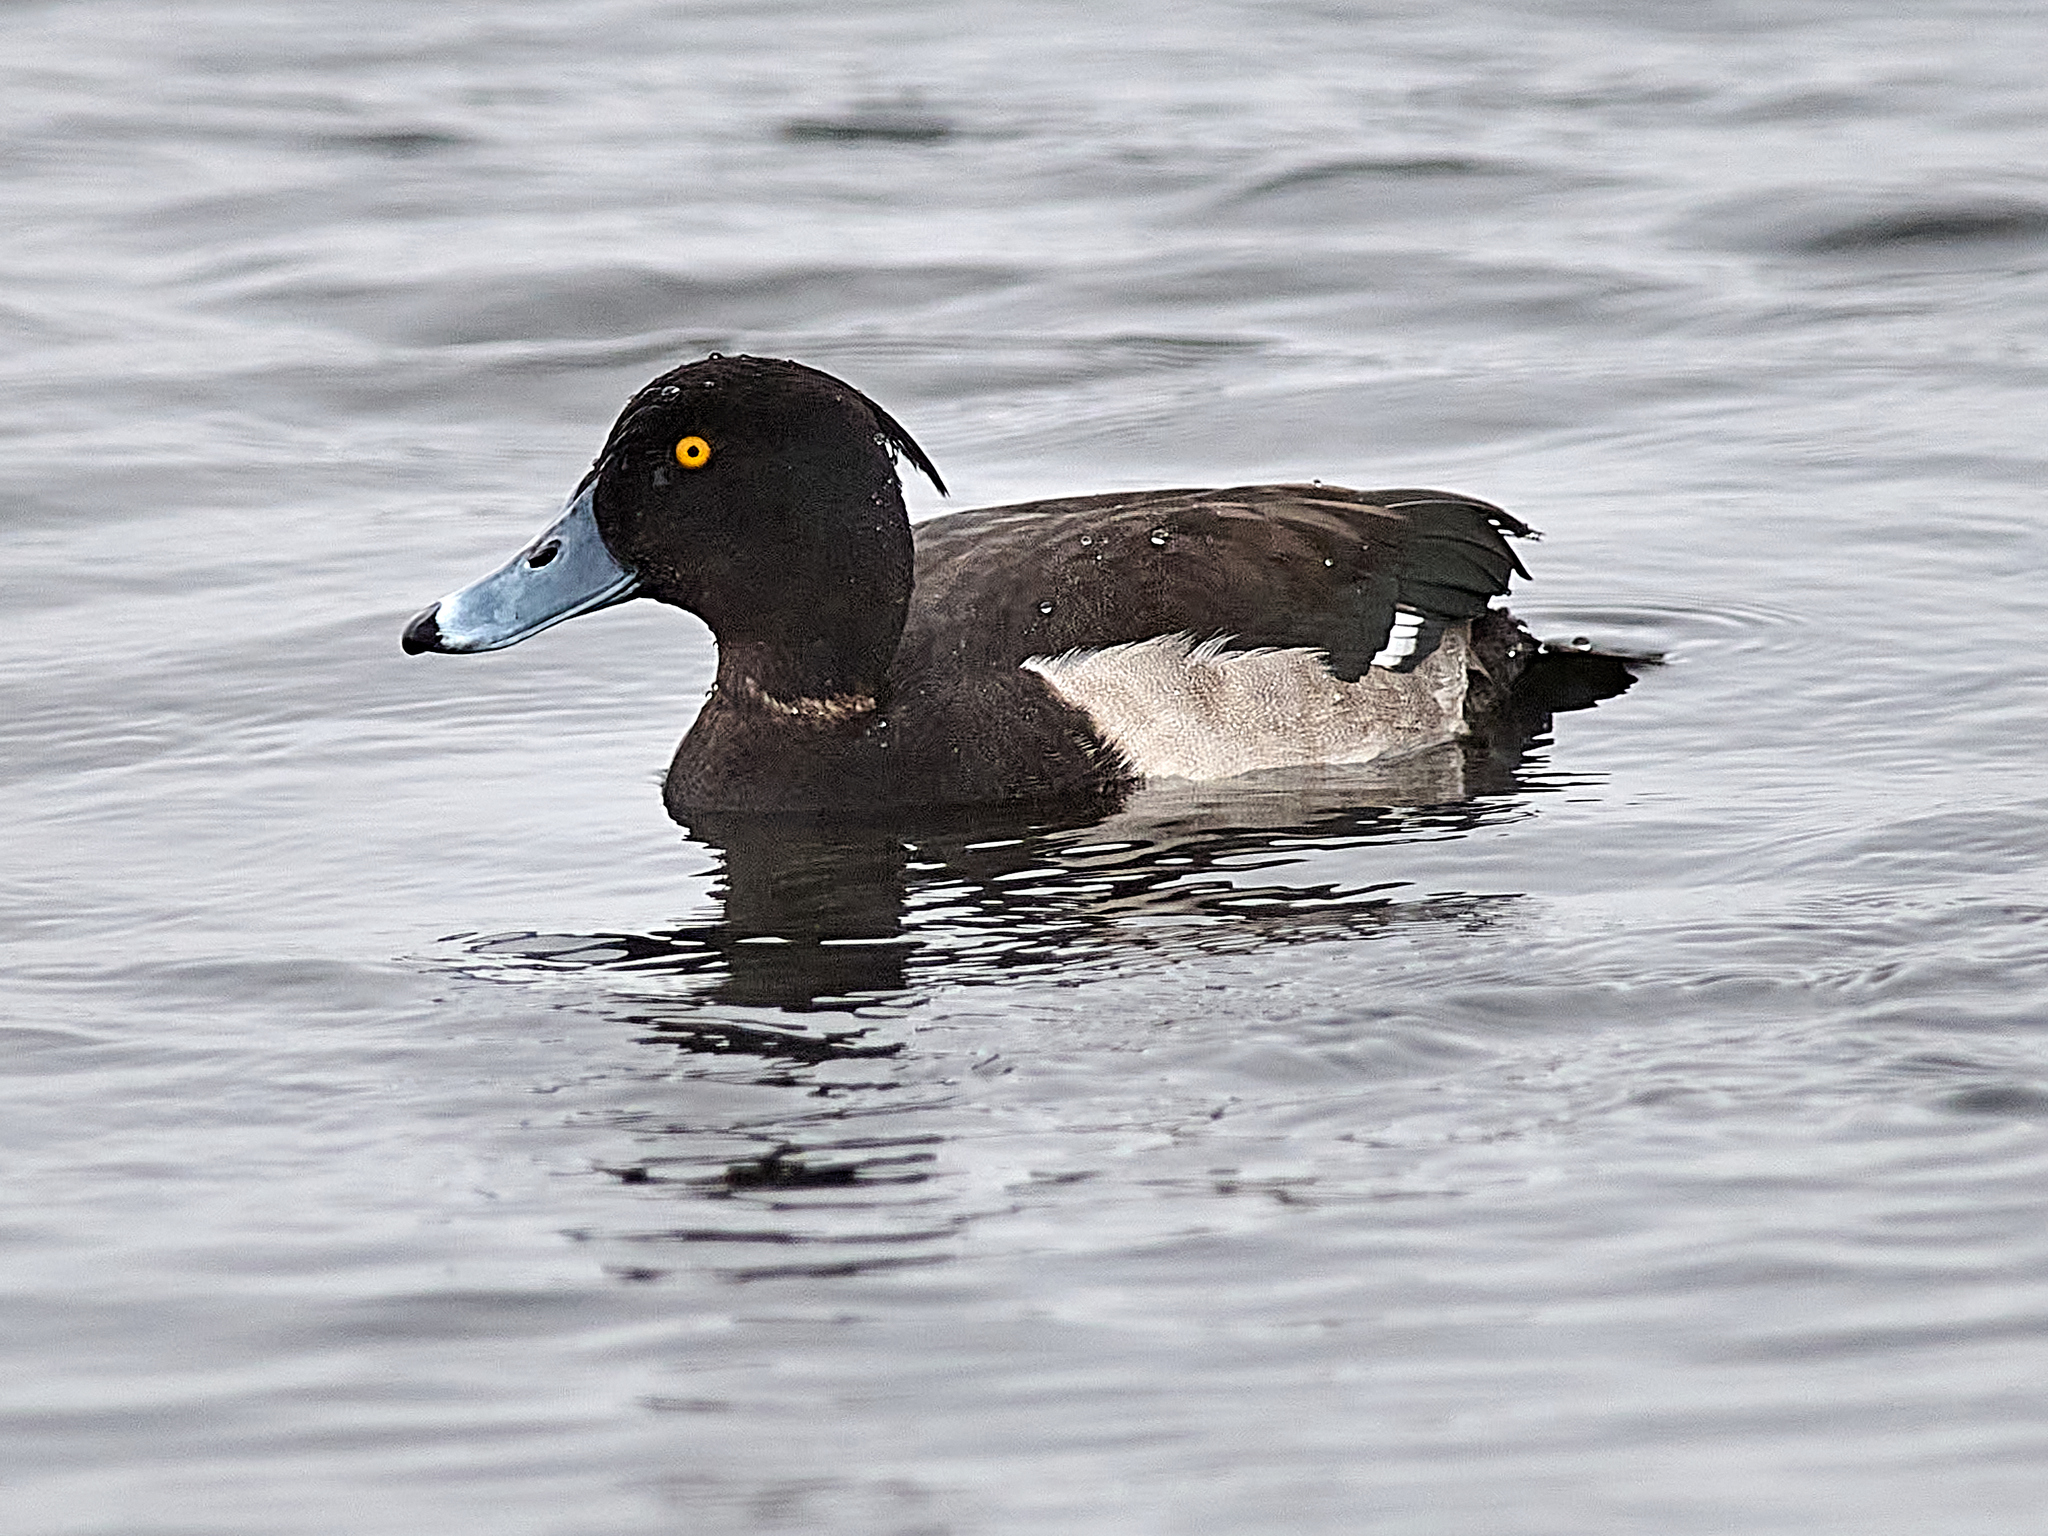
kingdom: Animalia
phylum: Chordata
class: Aves
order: Anseriformes
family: Anatidae
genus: Aythya
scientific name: Aythya fuligula
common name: Tufted duck
